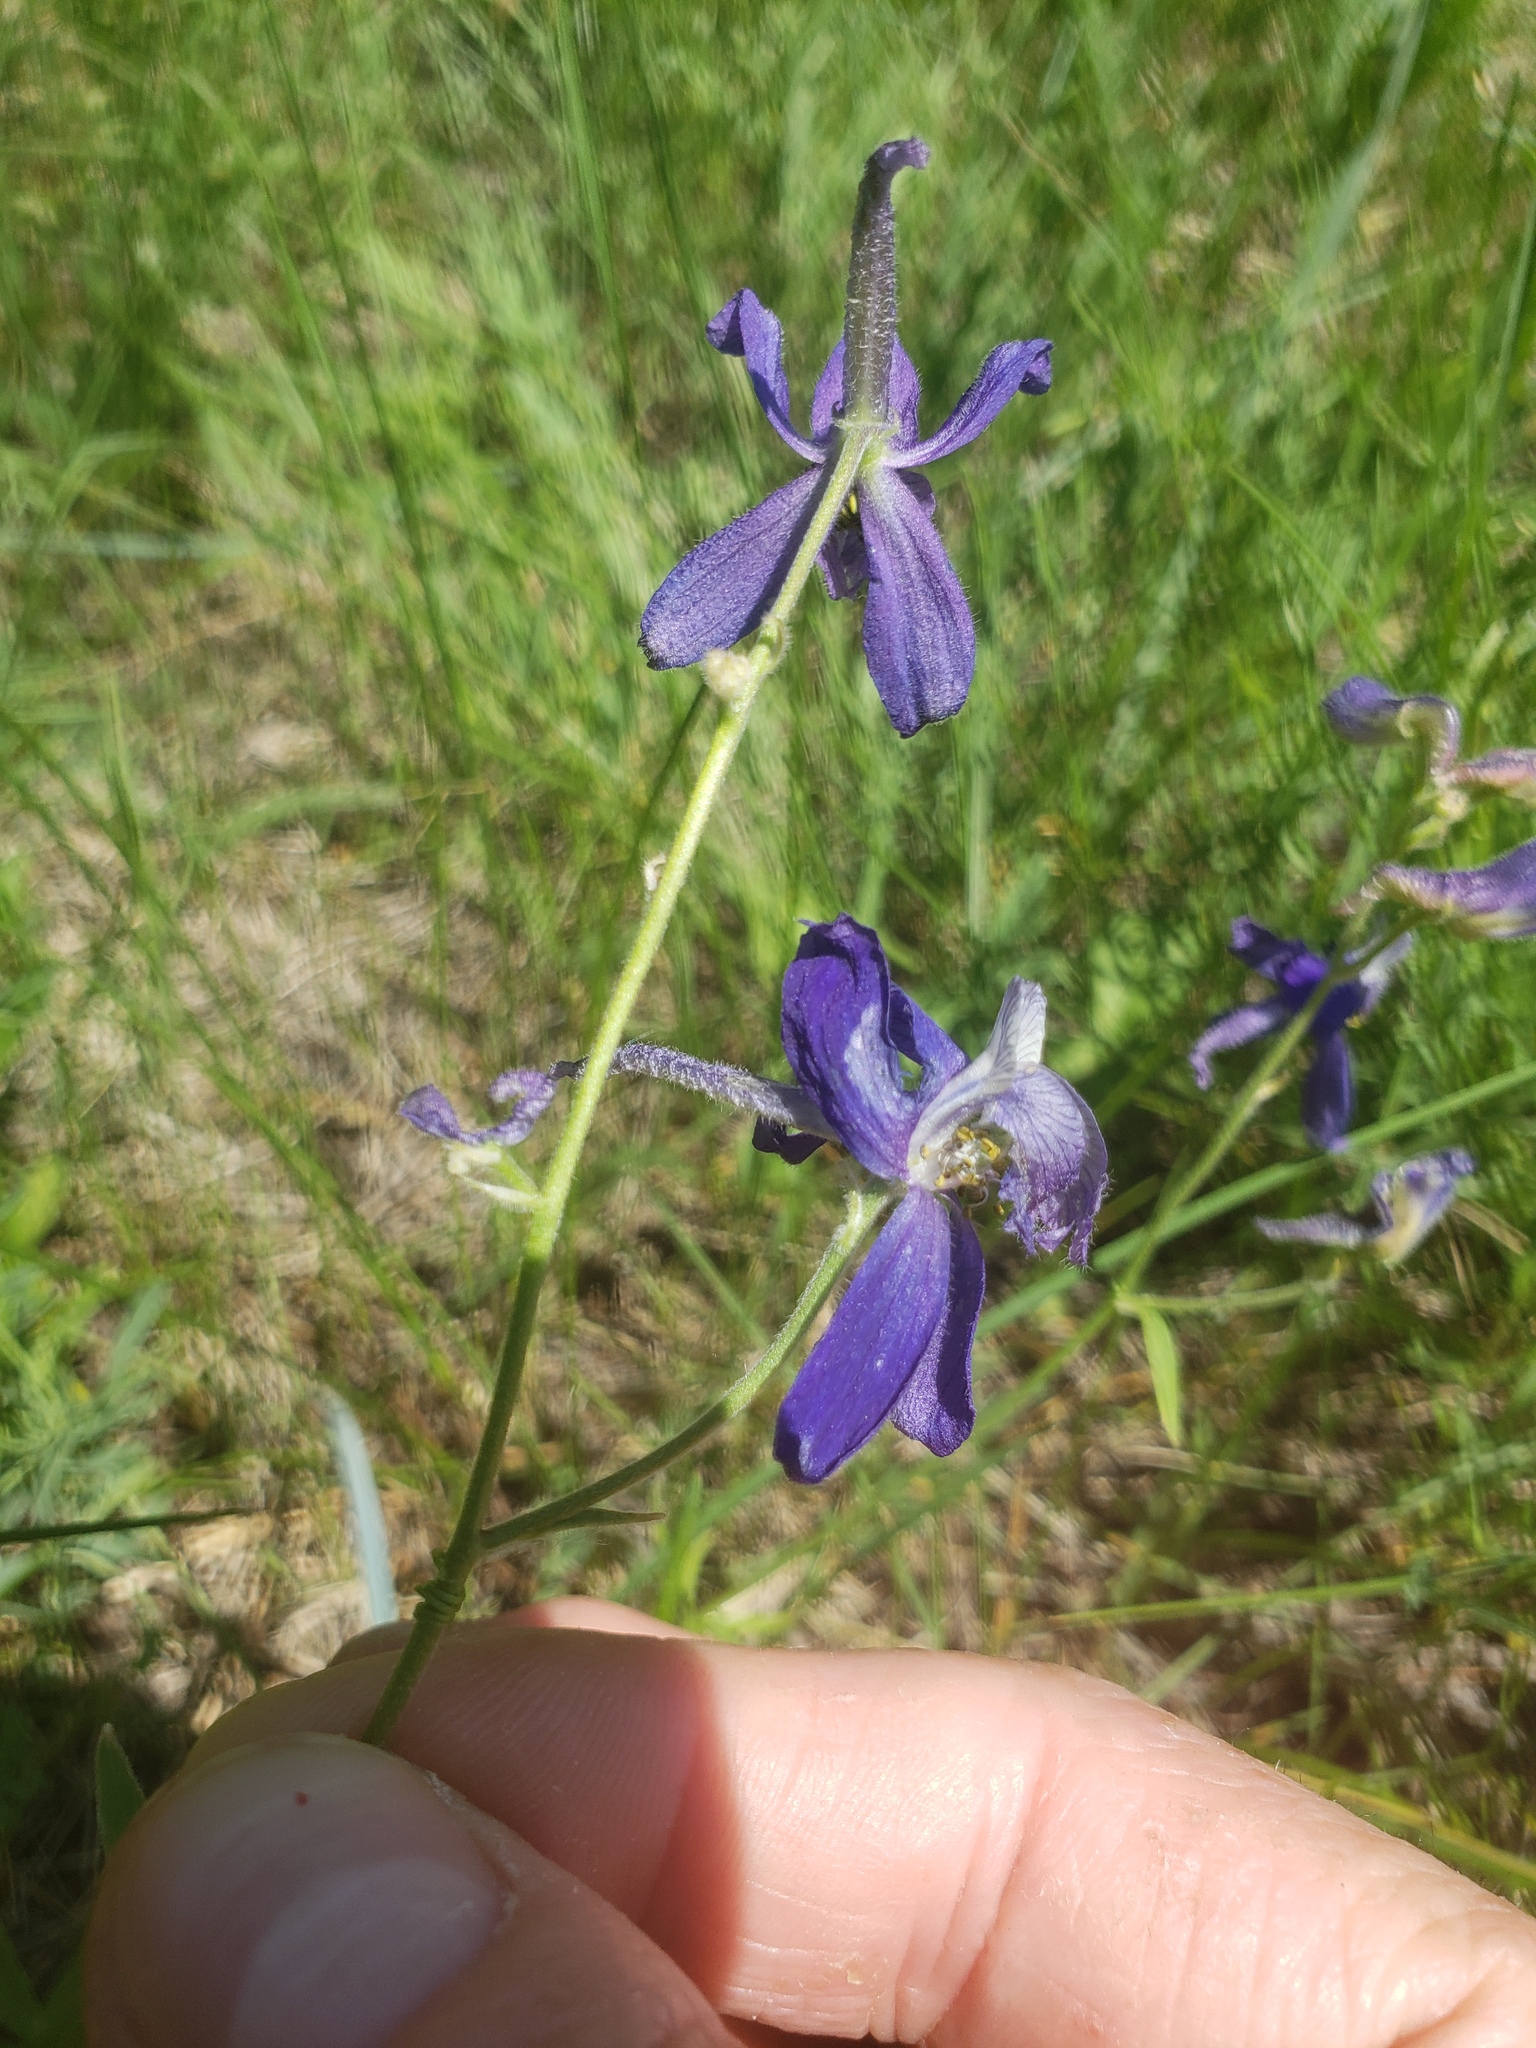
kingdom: Plantae
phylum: Tracheophyta
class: Magnoliopsida
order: Ranunculales
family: Ranunculaceae
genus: Delphinium
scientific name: Delphinium nuttallianum
